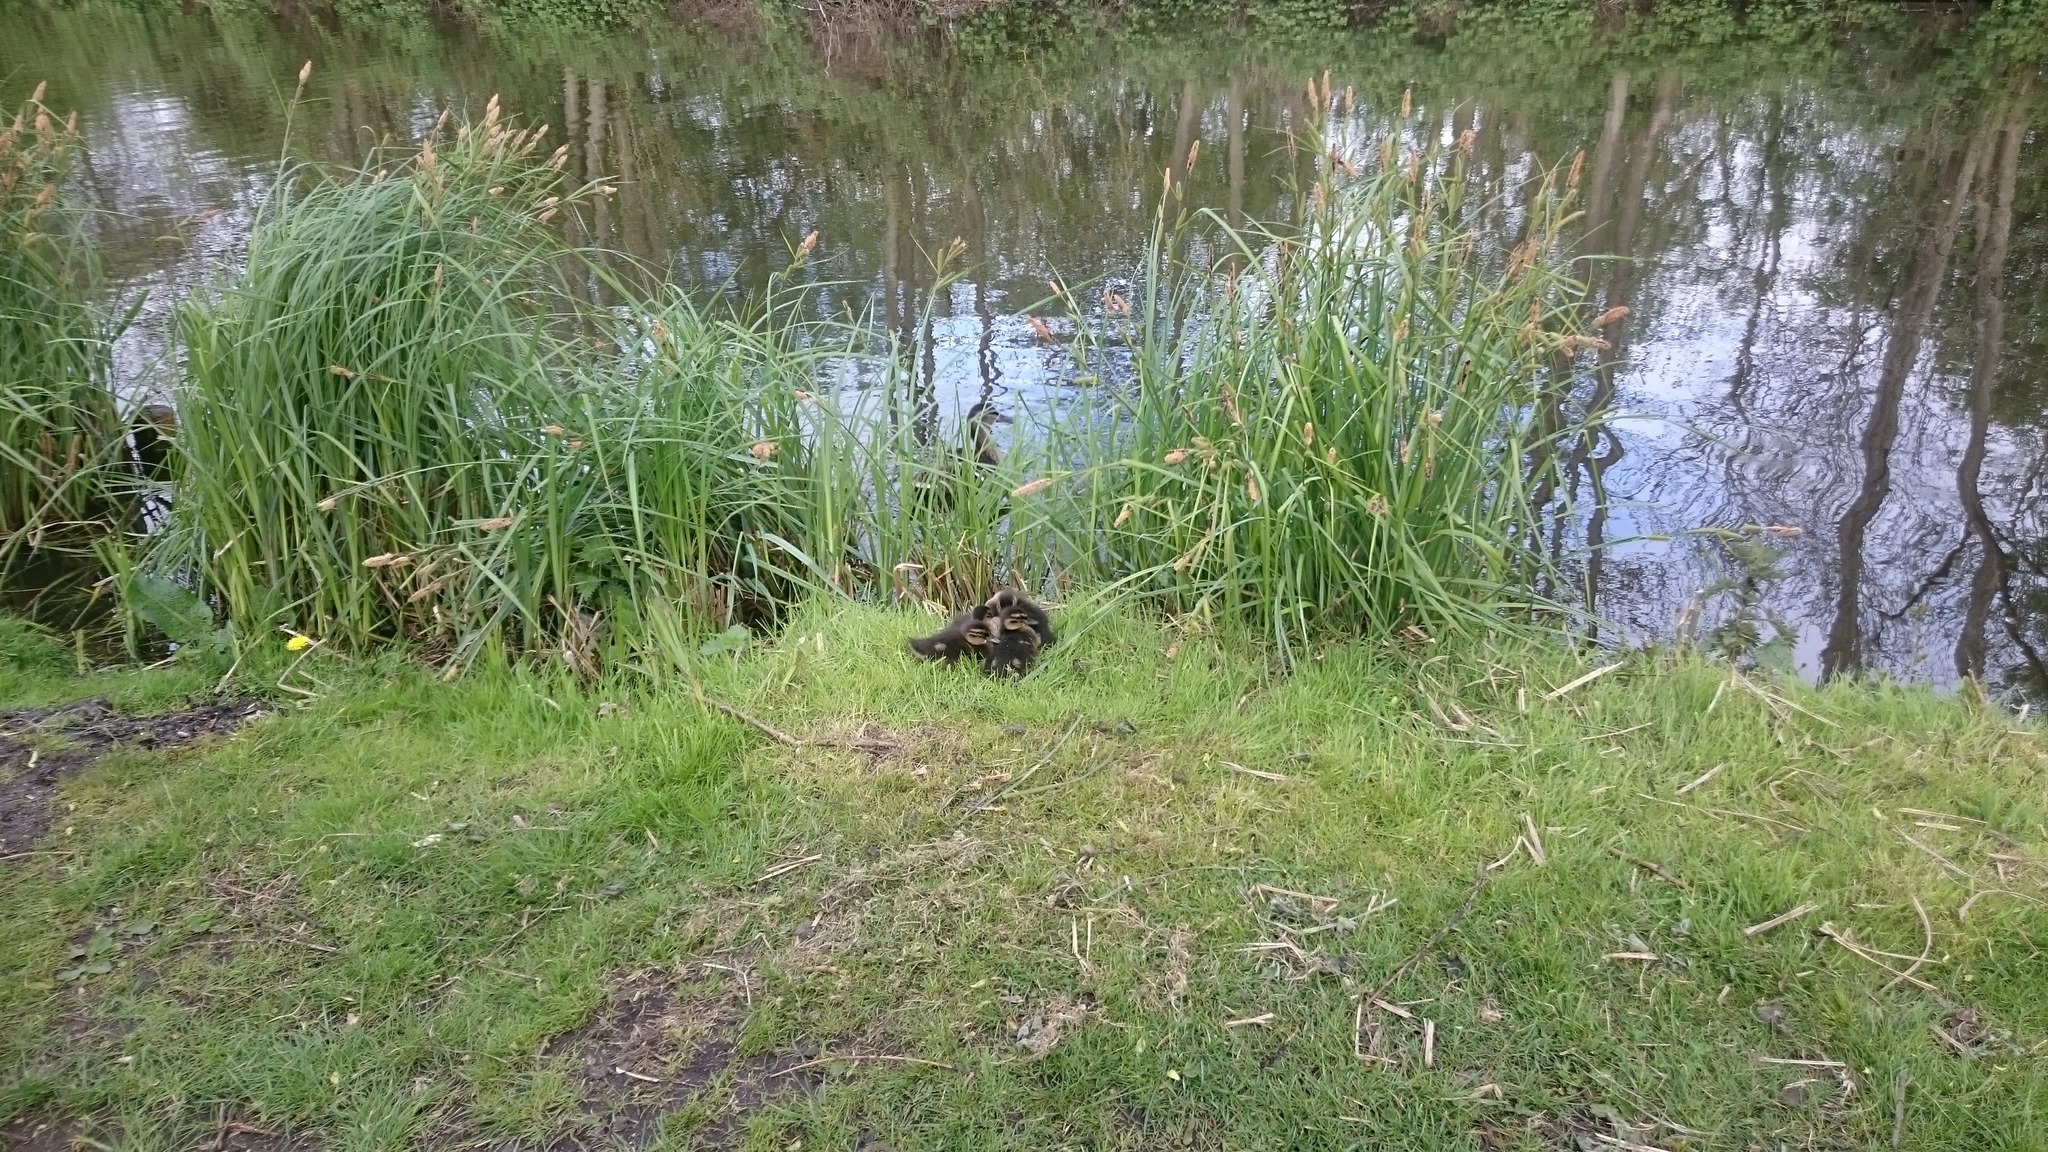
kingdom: Animalia
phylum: Chordata
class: Aves
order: Anseriformes
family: Anatidae
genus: Anas
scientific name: Anas platyrhynchos
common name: Mallard
